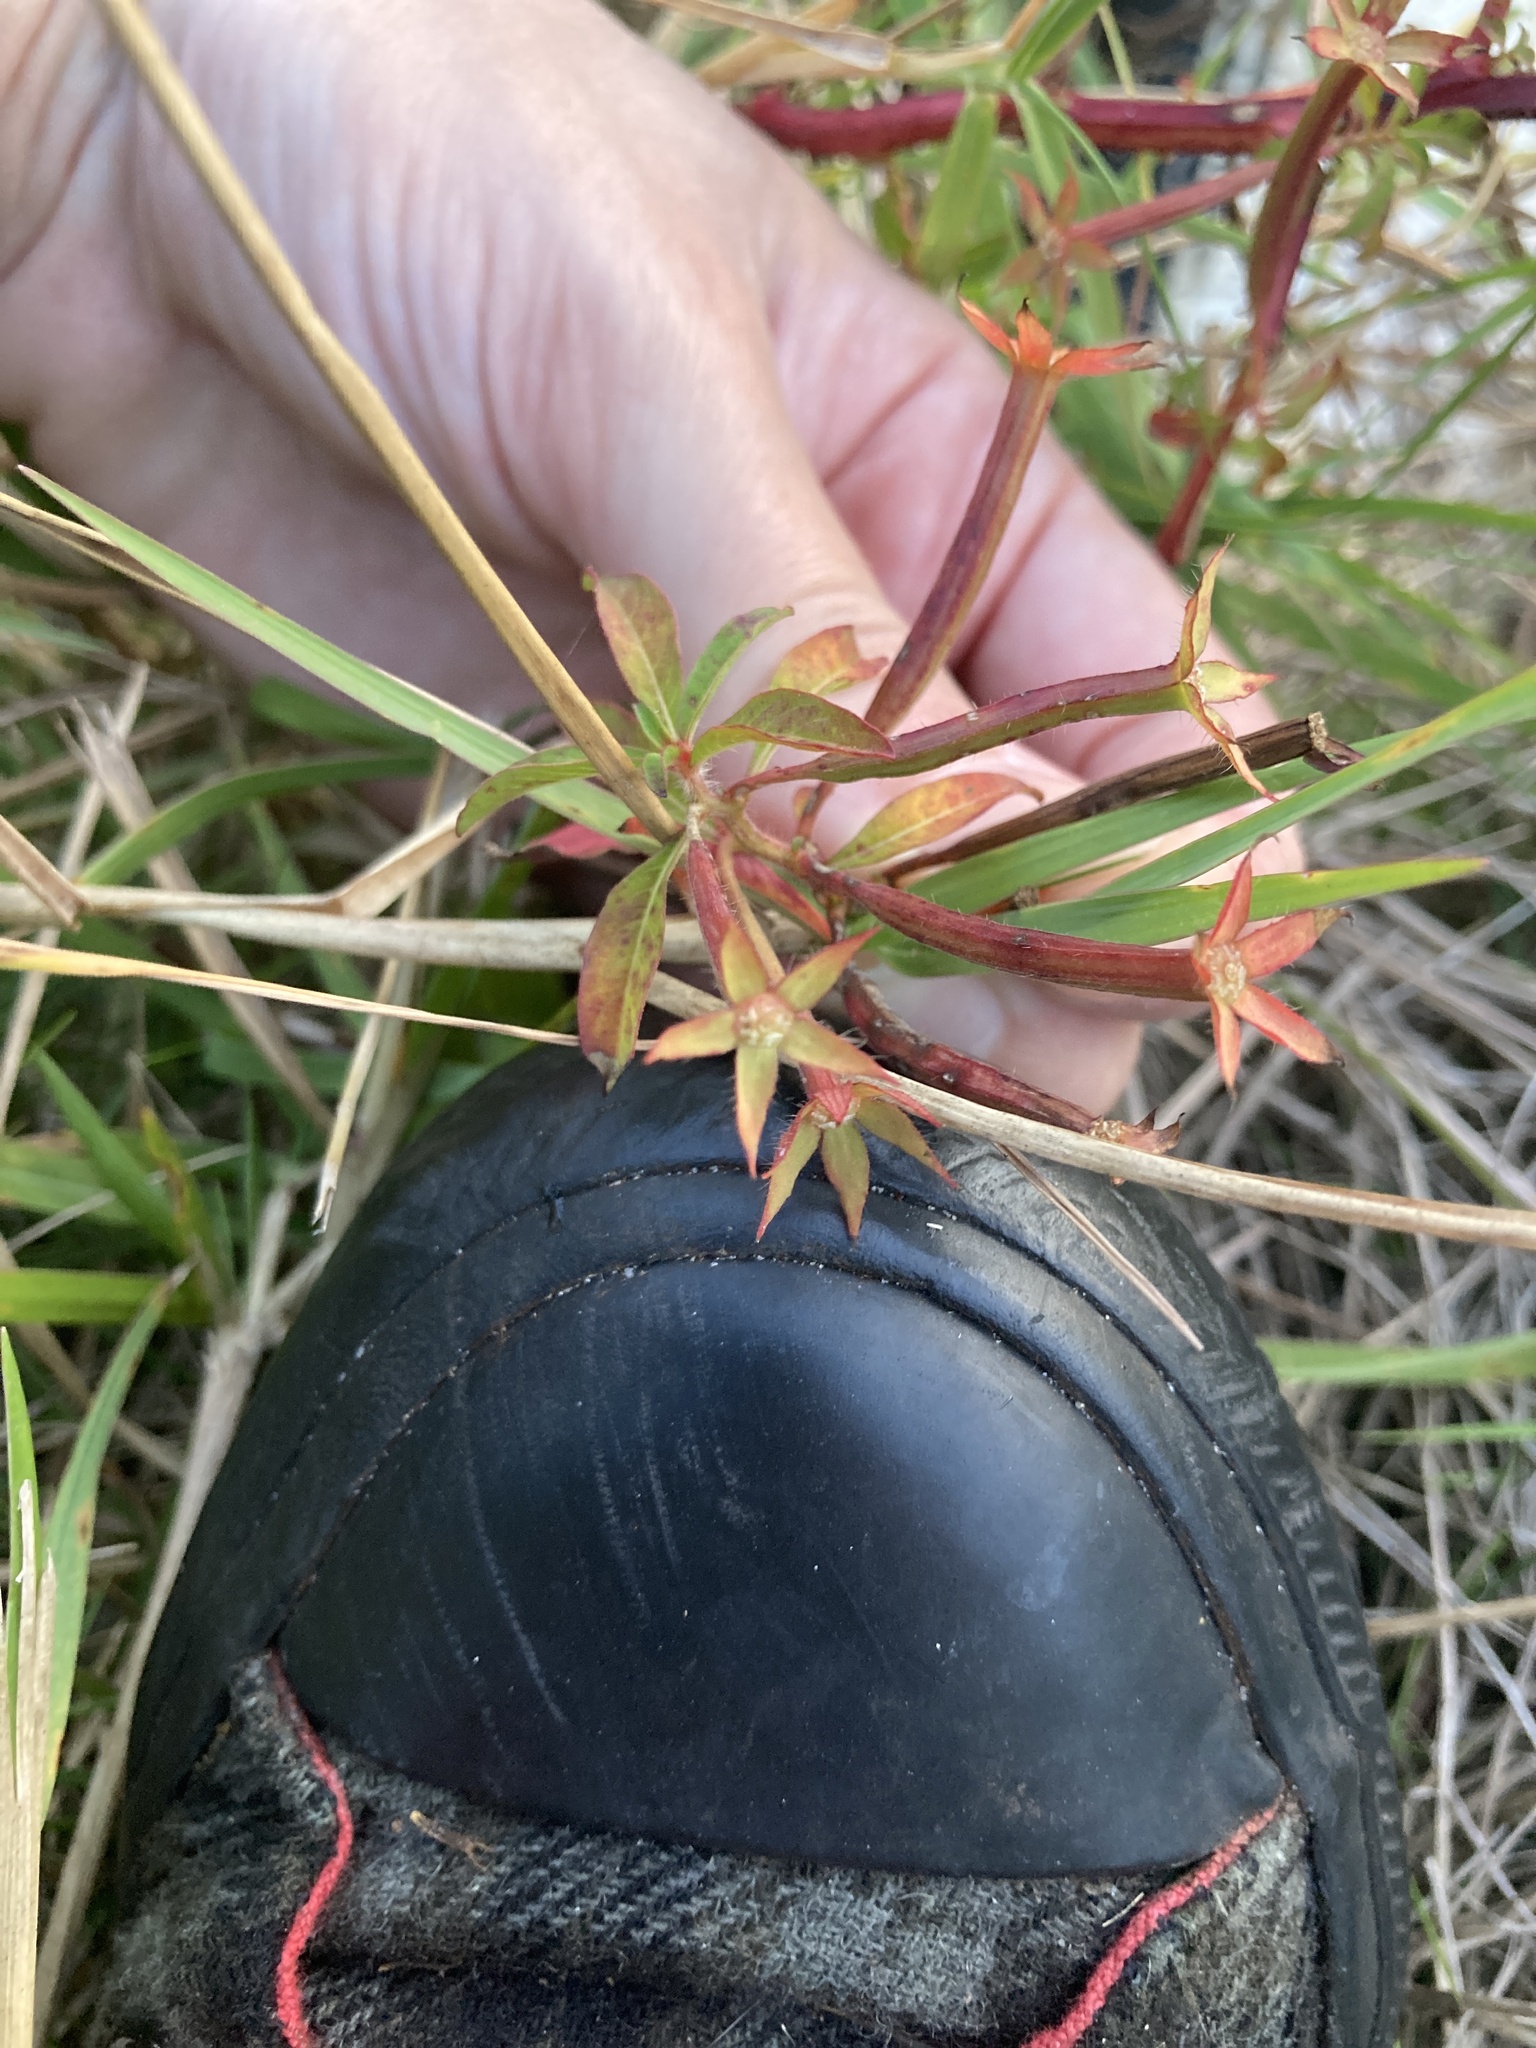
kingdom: Plantae
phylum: Tracheophyta
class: Magnoliopsida
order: Myrtales
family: Onagraceae
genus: Ludwigia
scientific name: Ludwigia octovalvis
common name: Water-primrose
